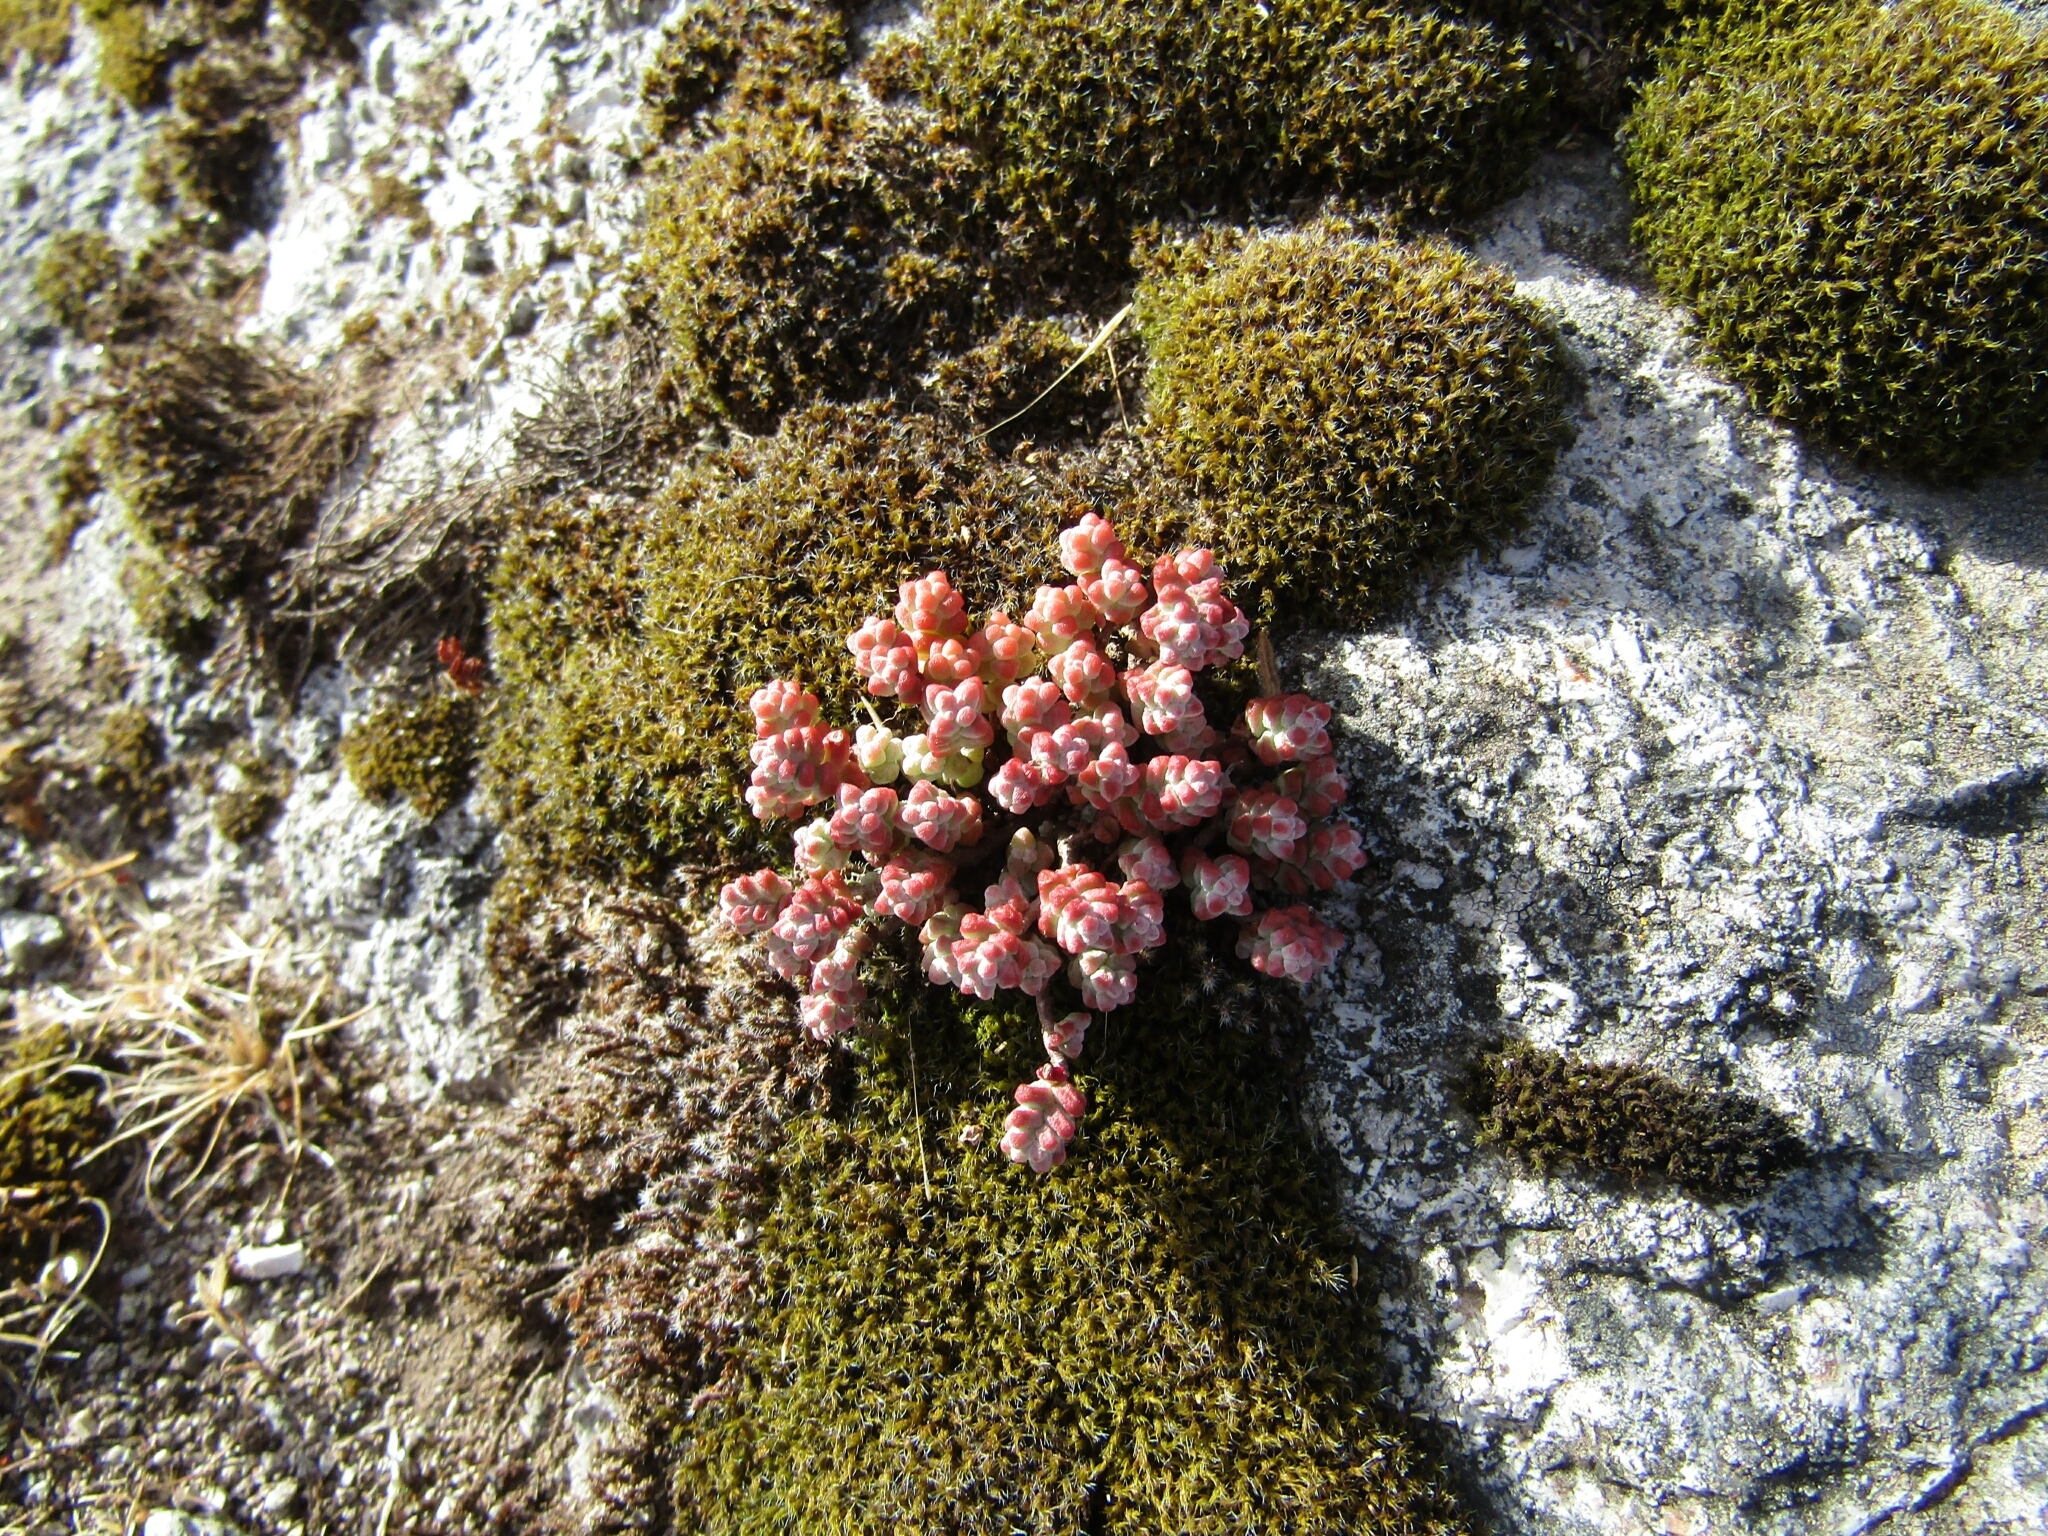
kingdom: Plantae
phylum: Tracheophyta
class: Magnoliopsida
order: Saxifragales
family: Crassulaceae
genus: Sedum
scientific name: Sedum brevifolium
